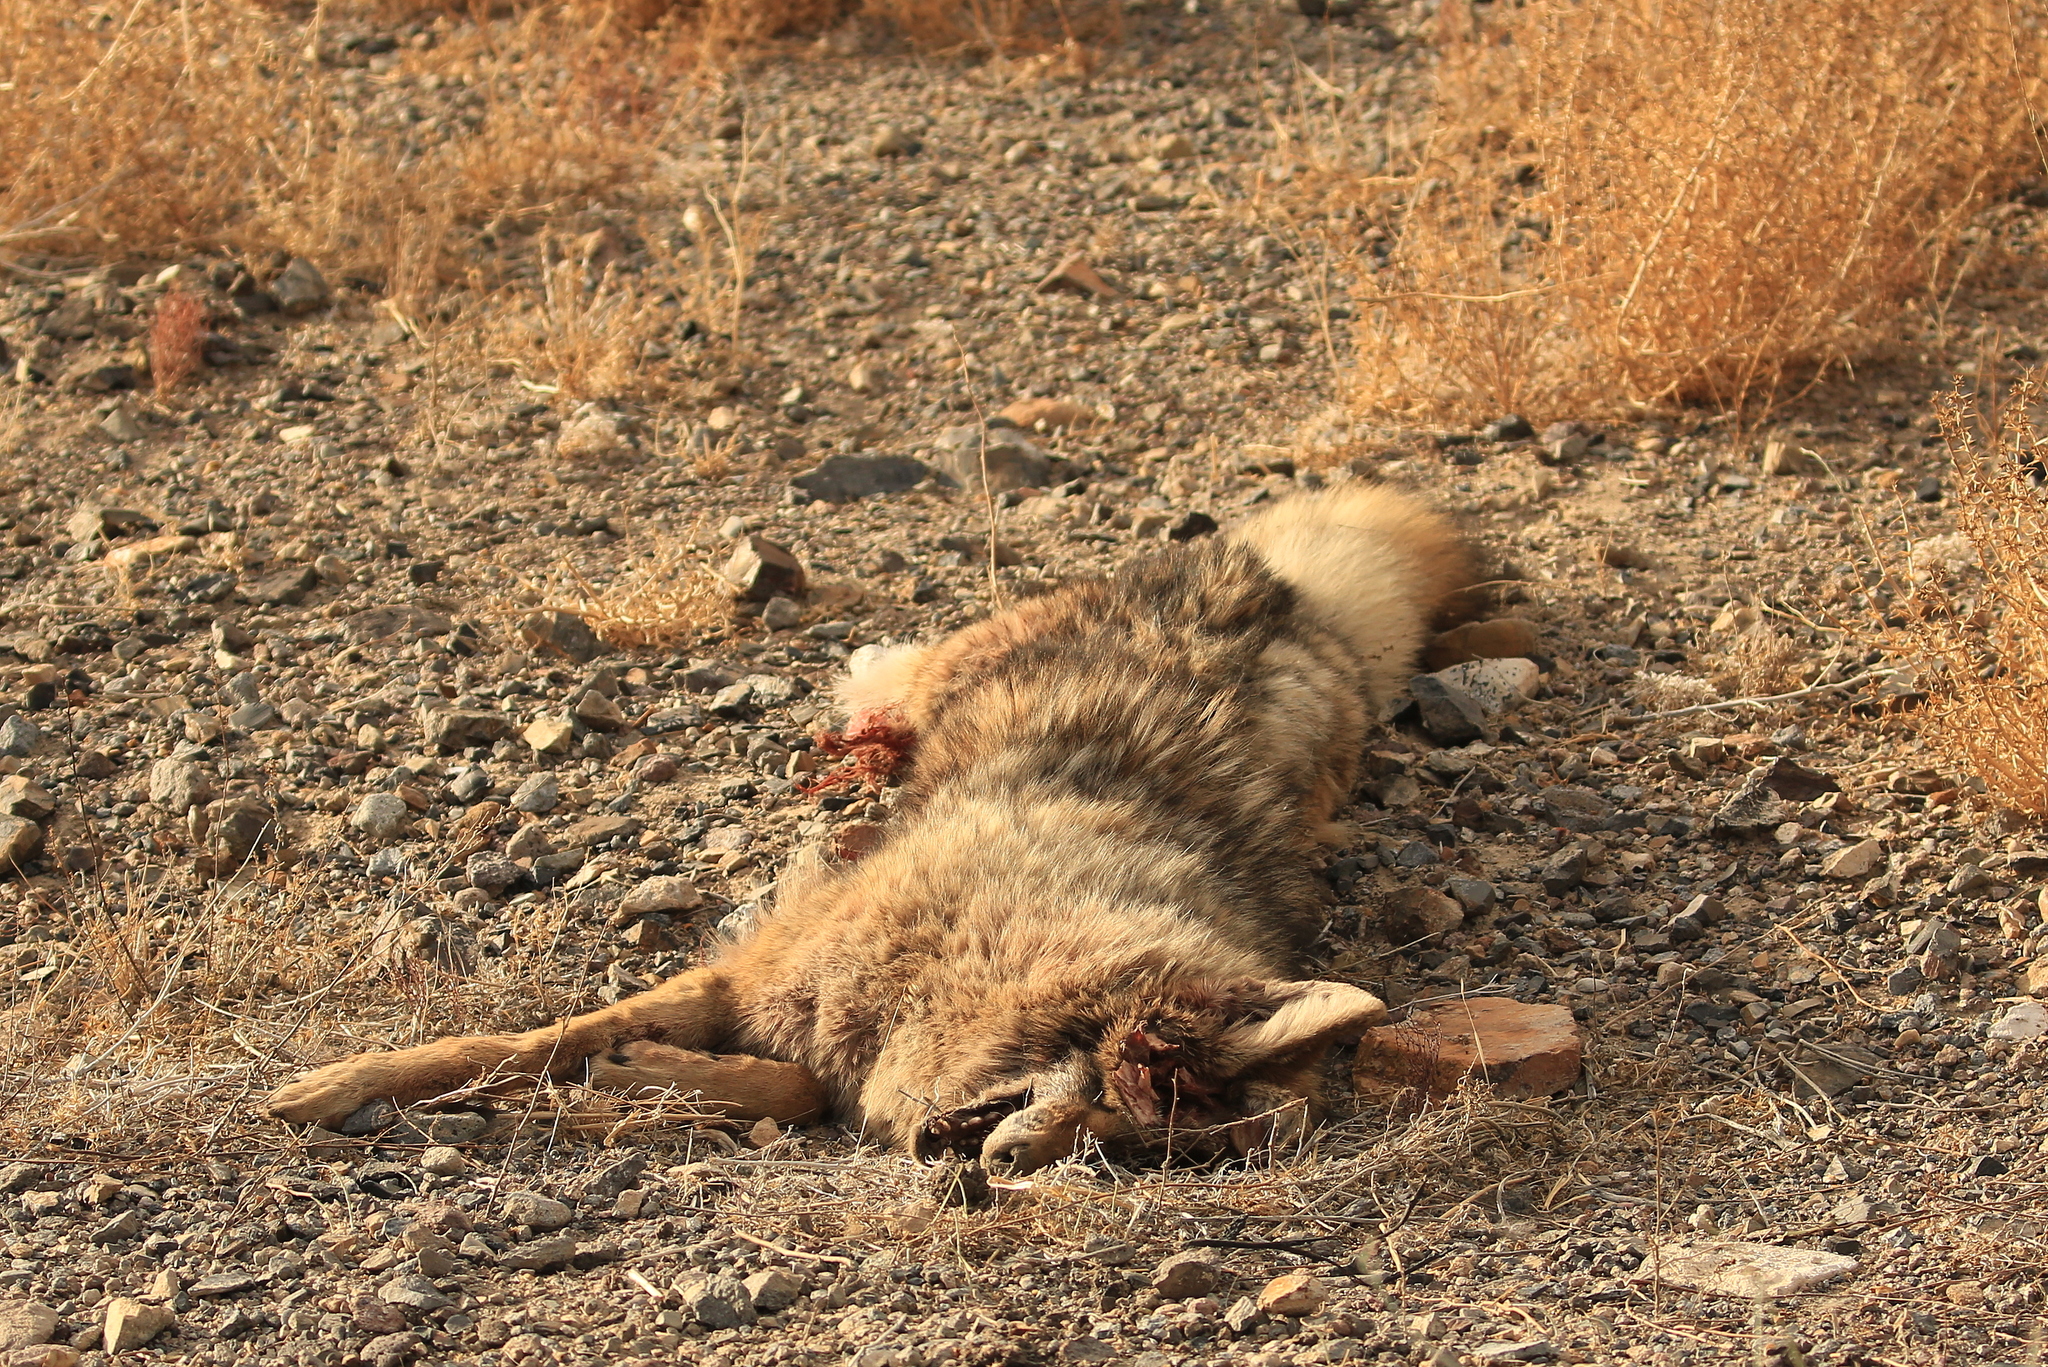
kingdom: Animalia
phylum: Chordata
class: Mammalia
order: Carnivora
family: Canidae
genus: Canis
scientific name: Canis latrans
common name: Coyote
